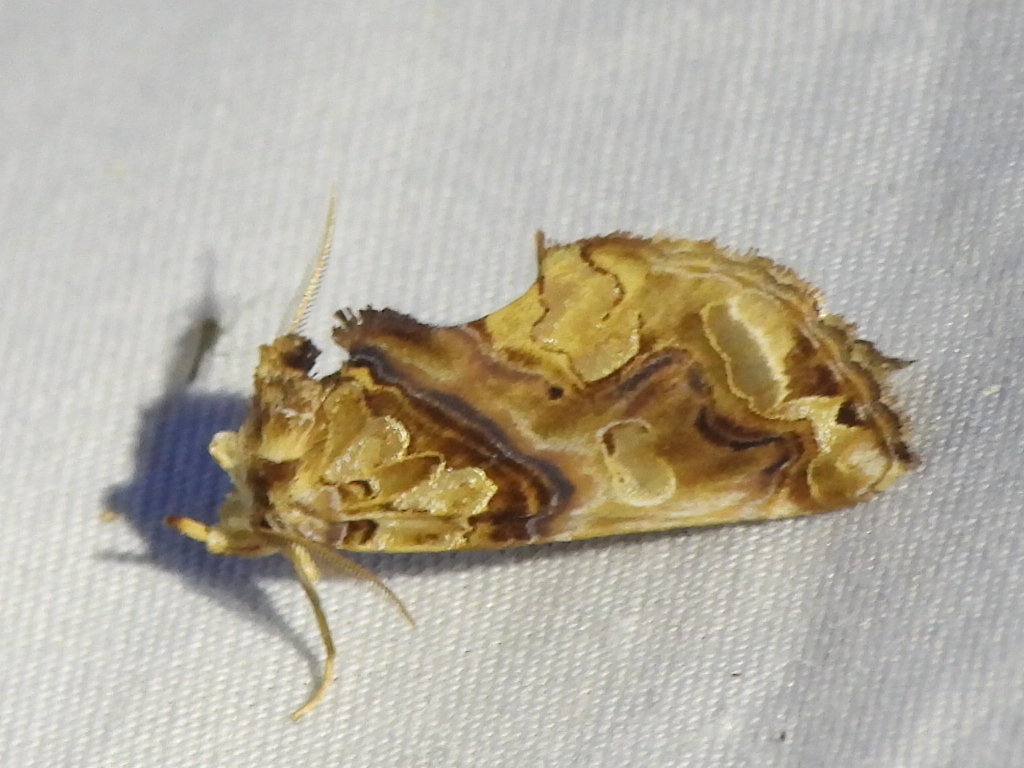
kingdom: Animalia
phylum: Arthropoda
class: Insecta
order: Lepidoptera
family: Erebidae
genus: Plusiodonta
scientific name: Plusiodonta compressipalpis
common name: Moonseed moth
